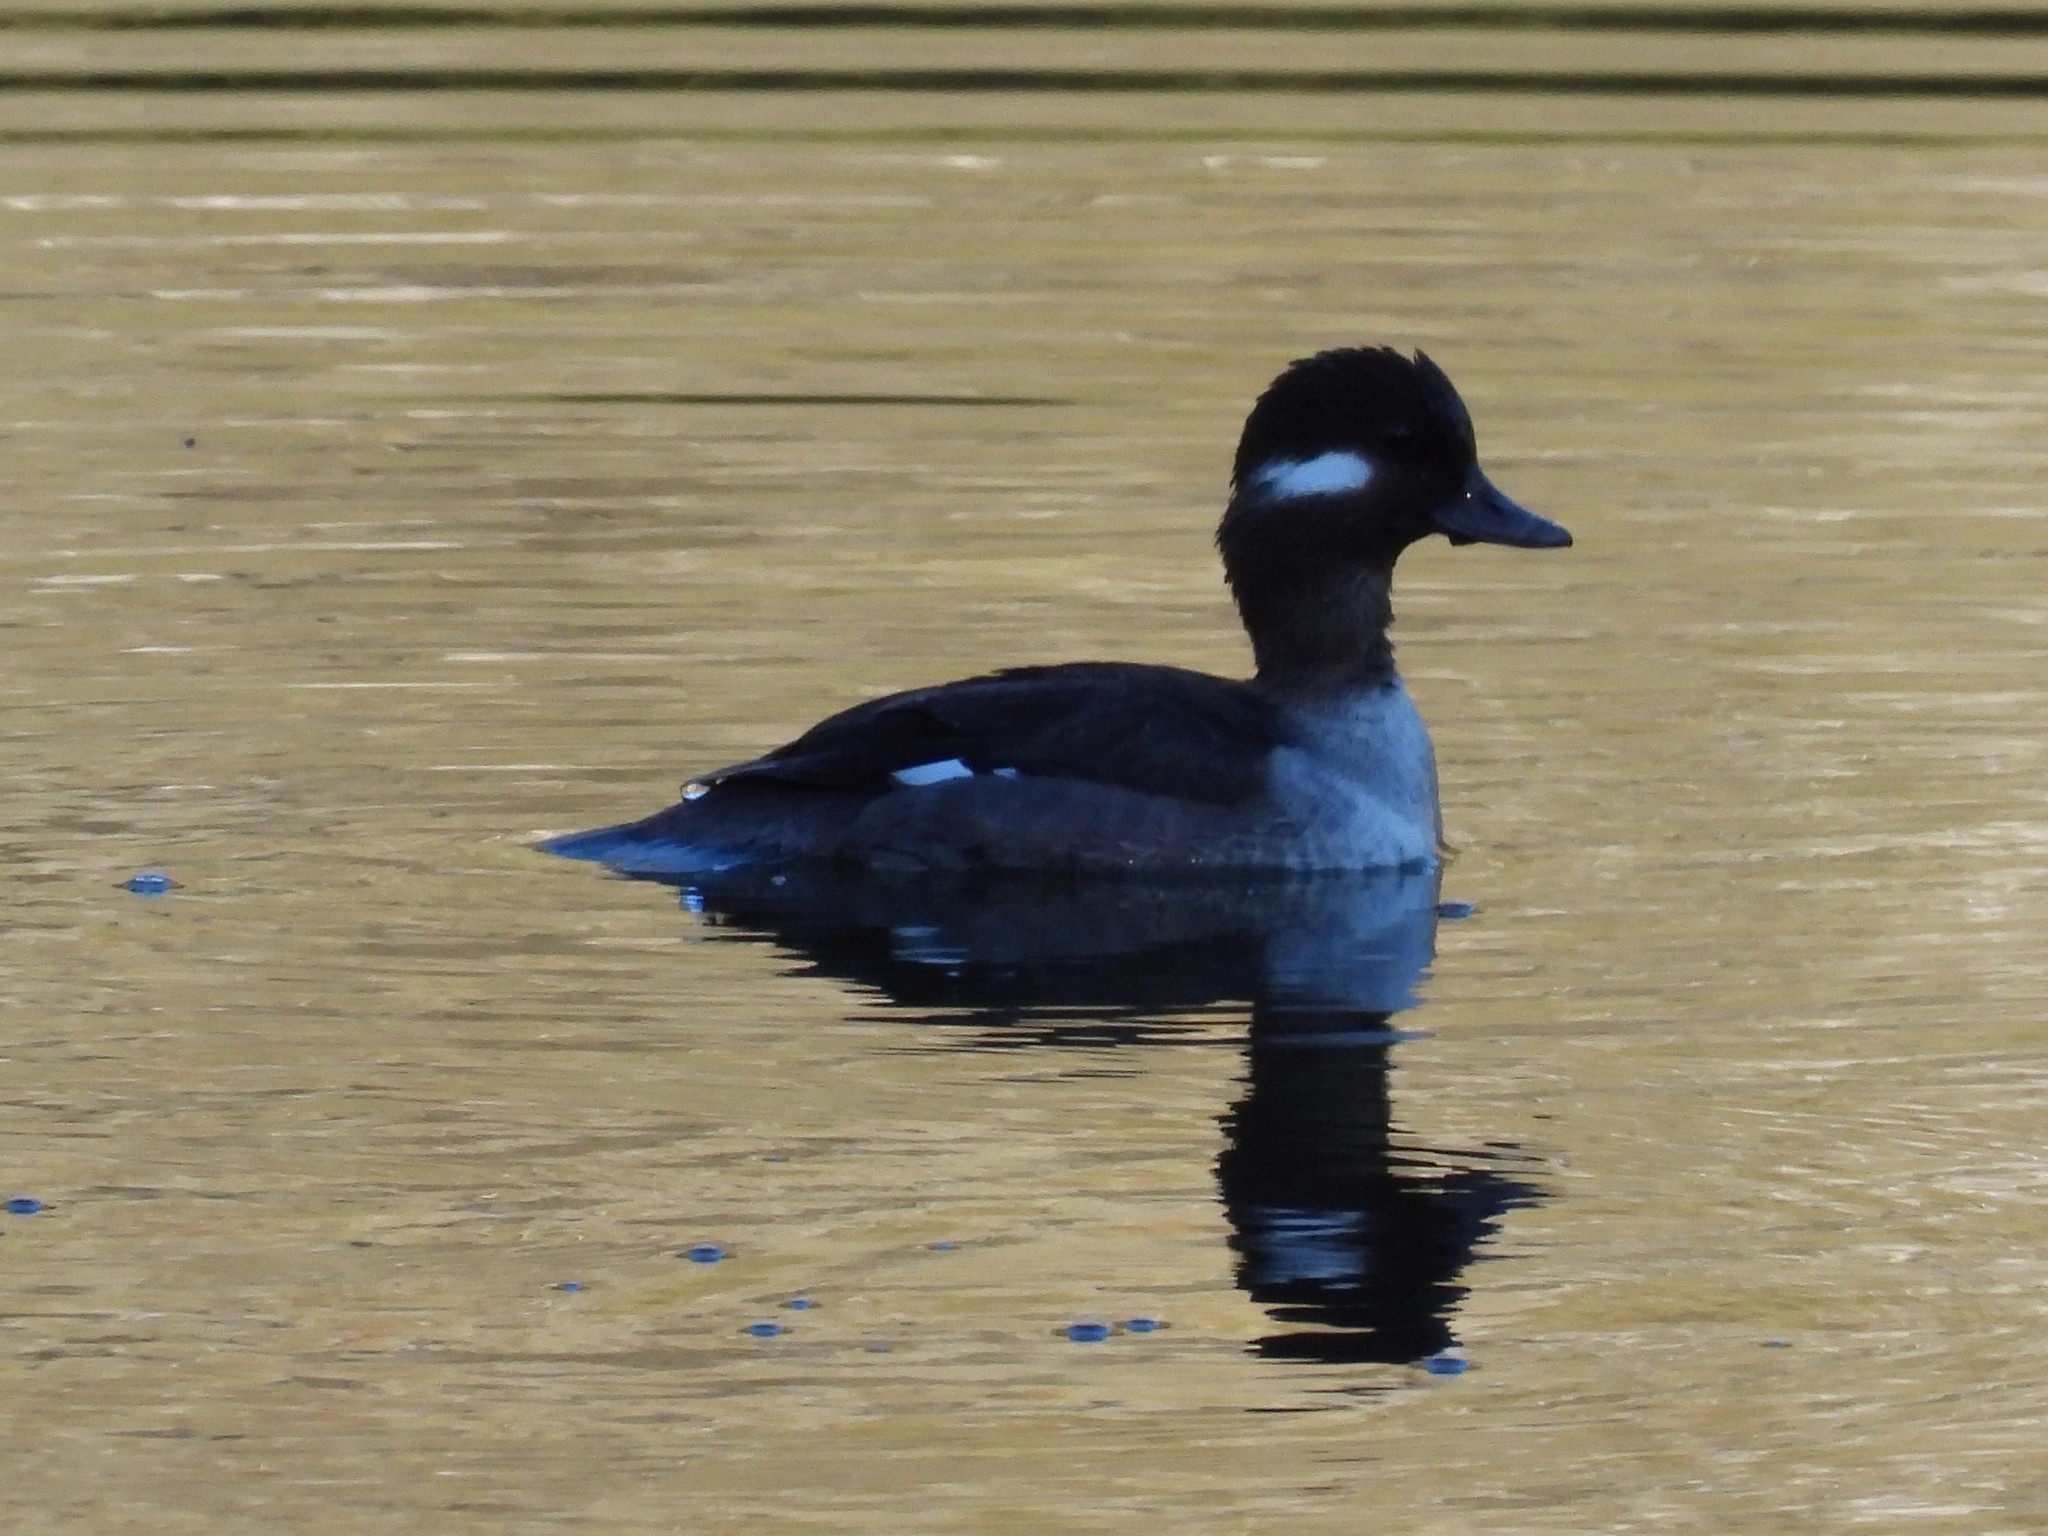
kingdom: Animalia
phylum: Chordata
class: Aves
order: Anseriformes
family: Anatidae
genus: Bucephala
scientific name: Bucephala albeola
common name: Bufflehead
